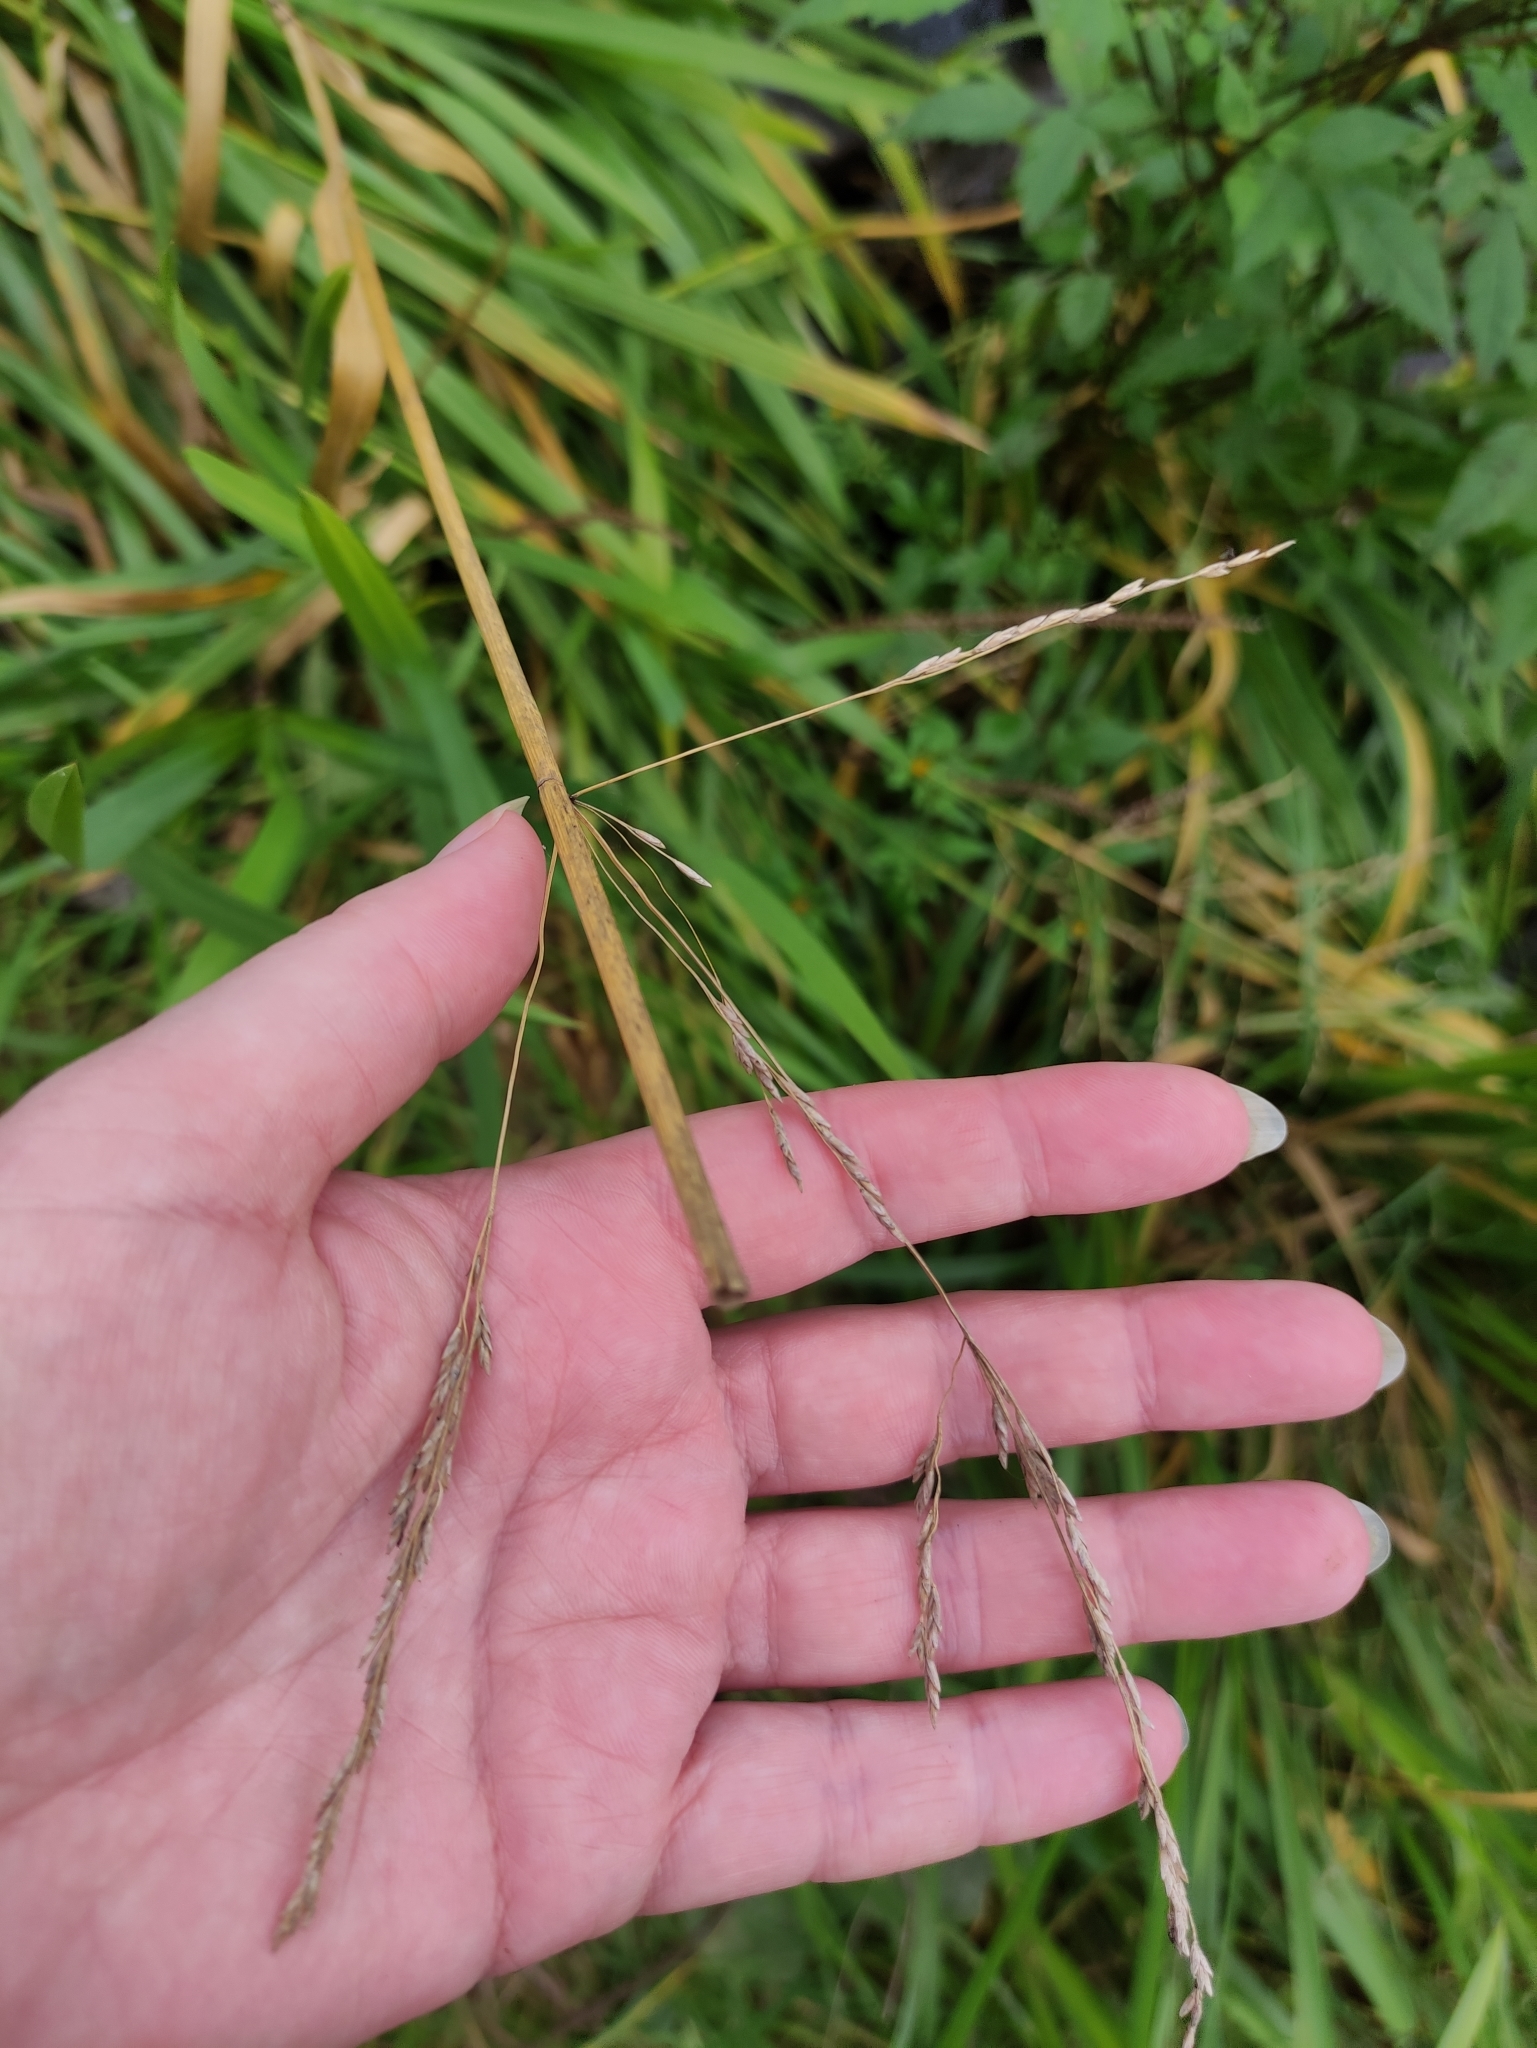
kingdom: Plantae
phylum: Tracheophyta
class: Liliopsida
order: Poales
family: Poaceae
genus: Glyceria
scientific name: Glyceria maxima
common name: Reed mannagrass
